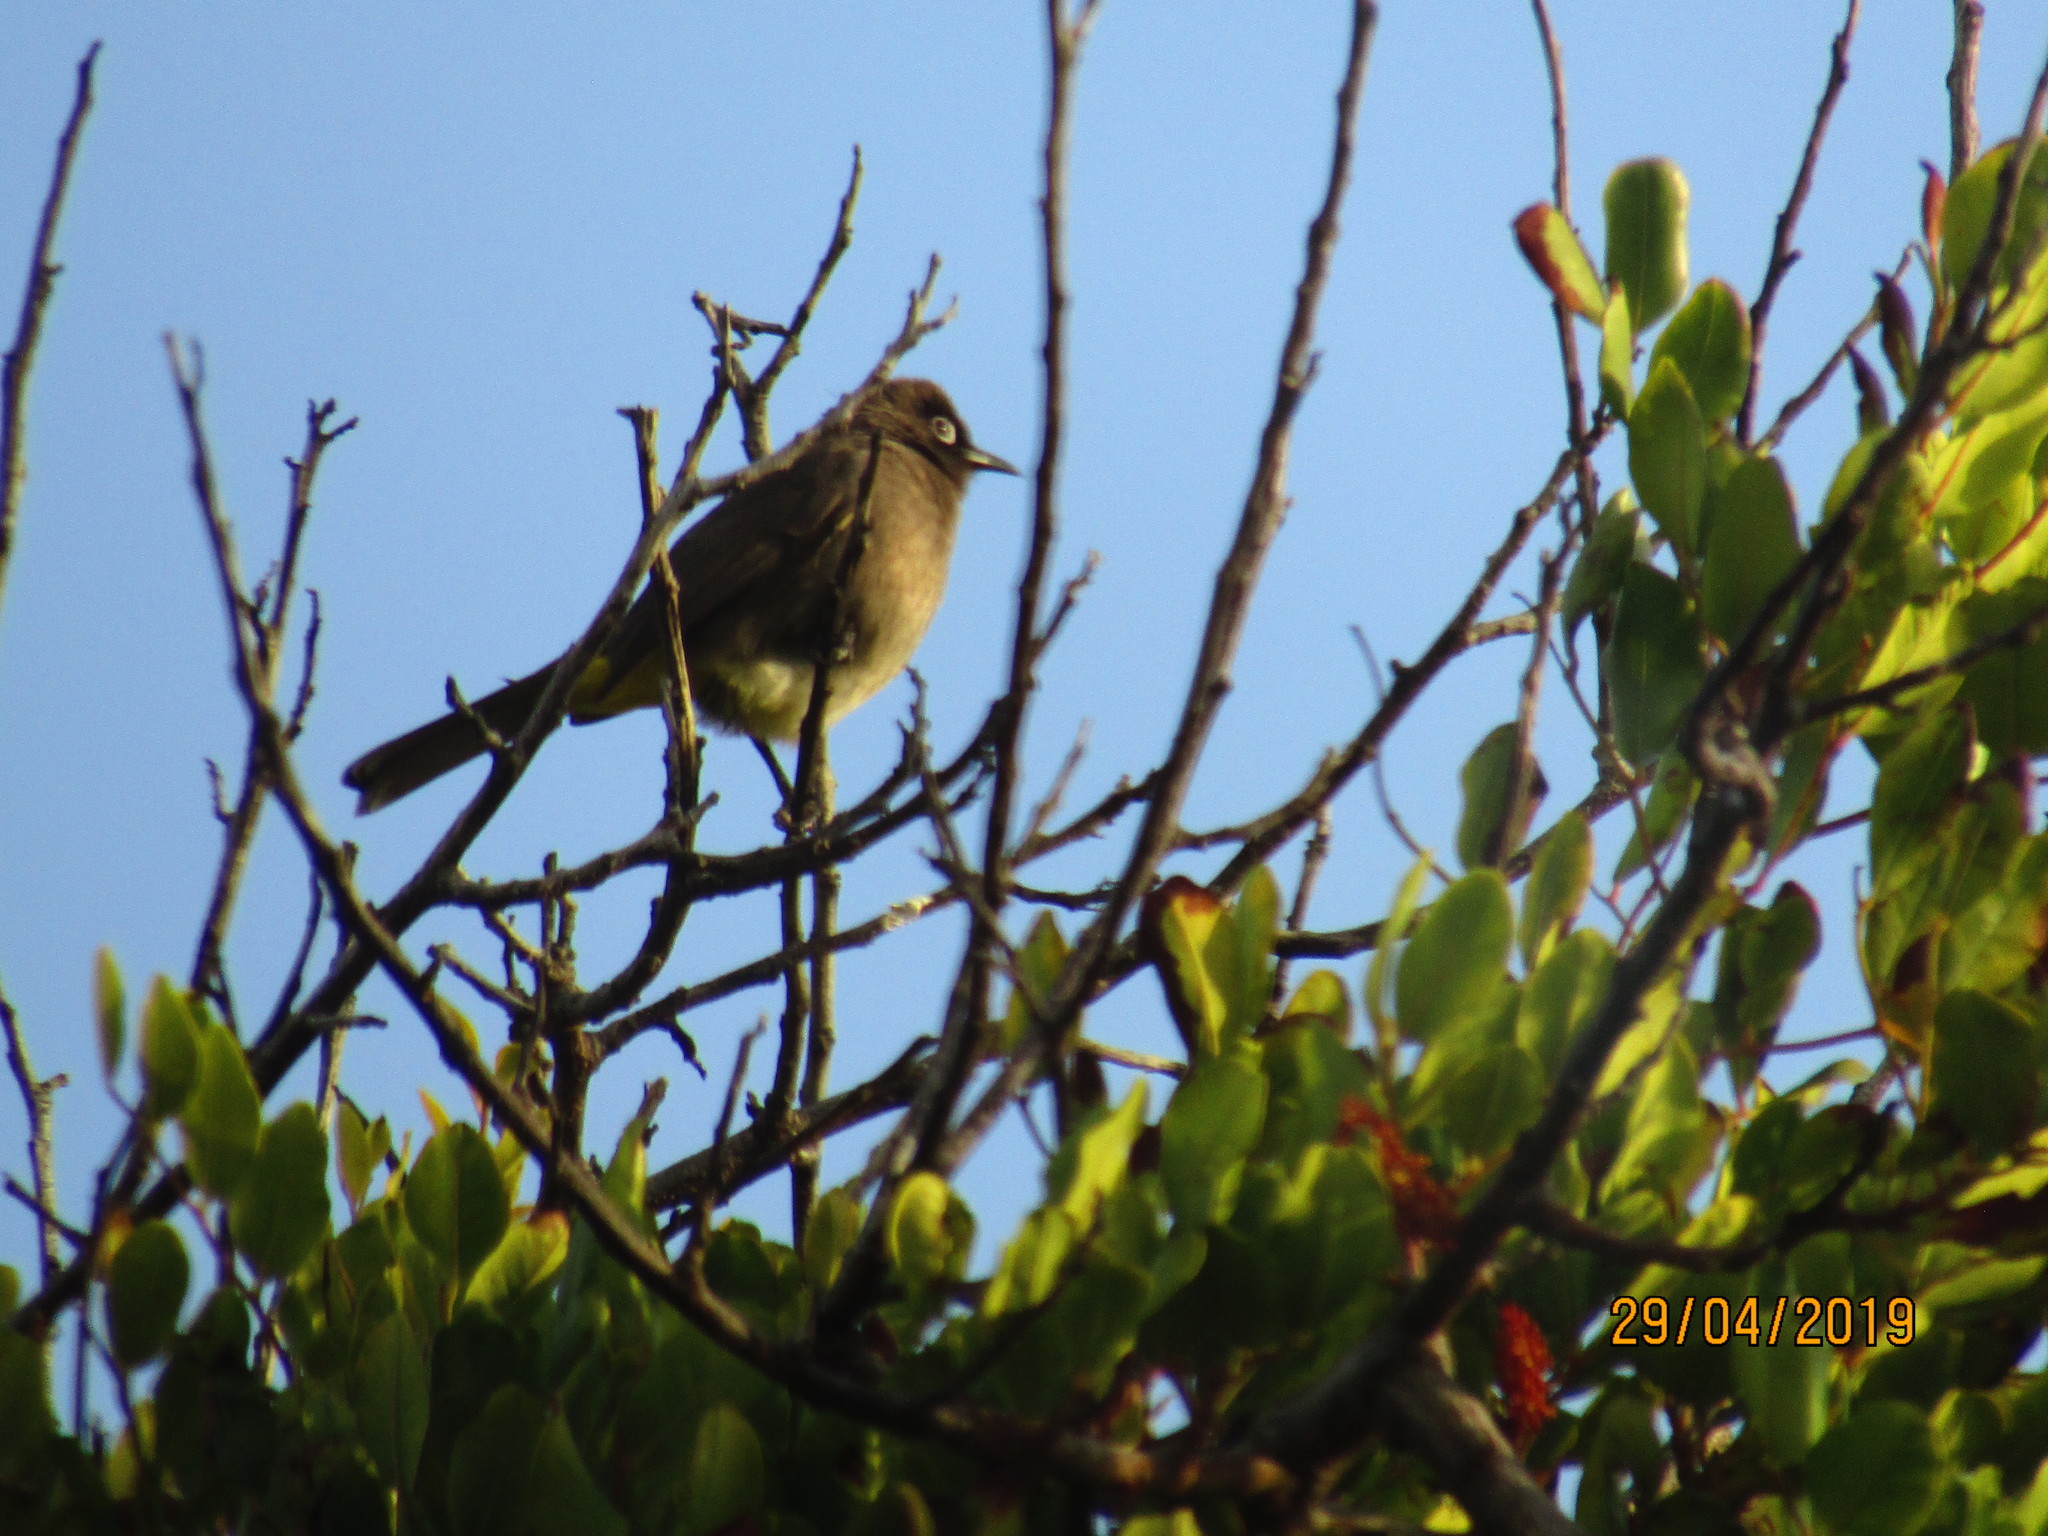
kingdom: Animalia
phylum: Chordata
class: Aves
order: Passeriformes
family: Pycnonotidae
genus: Pycnonotus
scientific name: Pycnonotus capensis
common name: Cape bulbul
